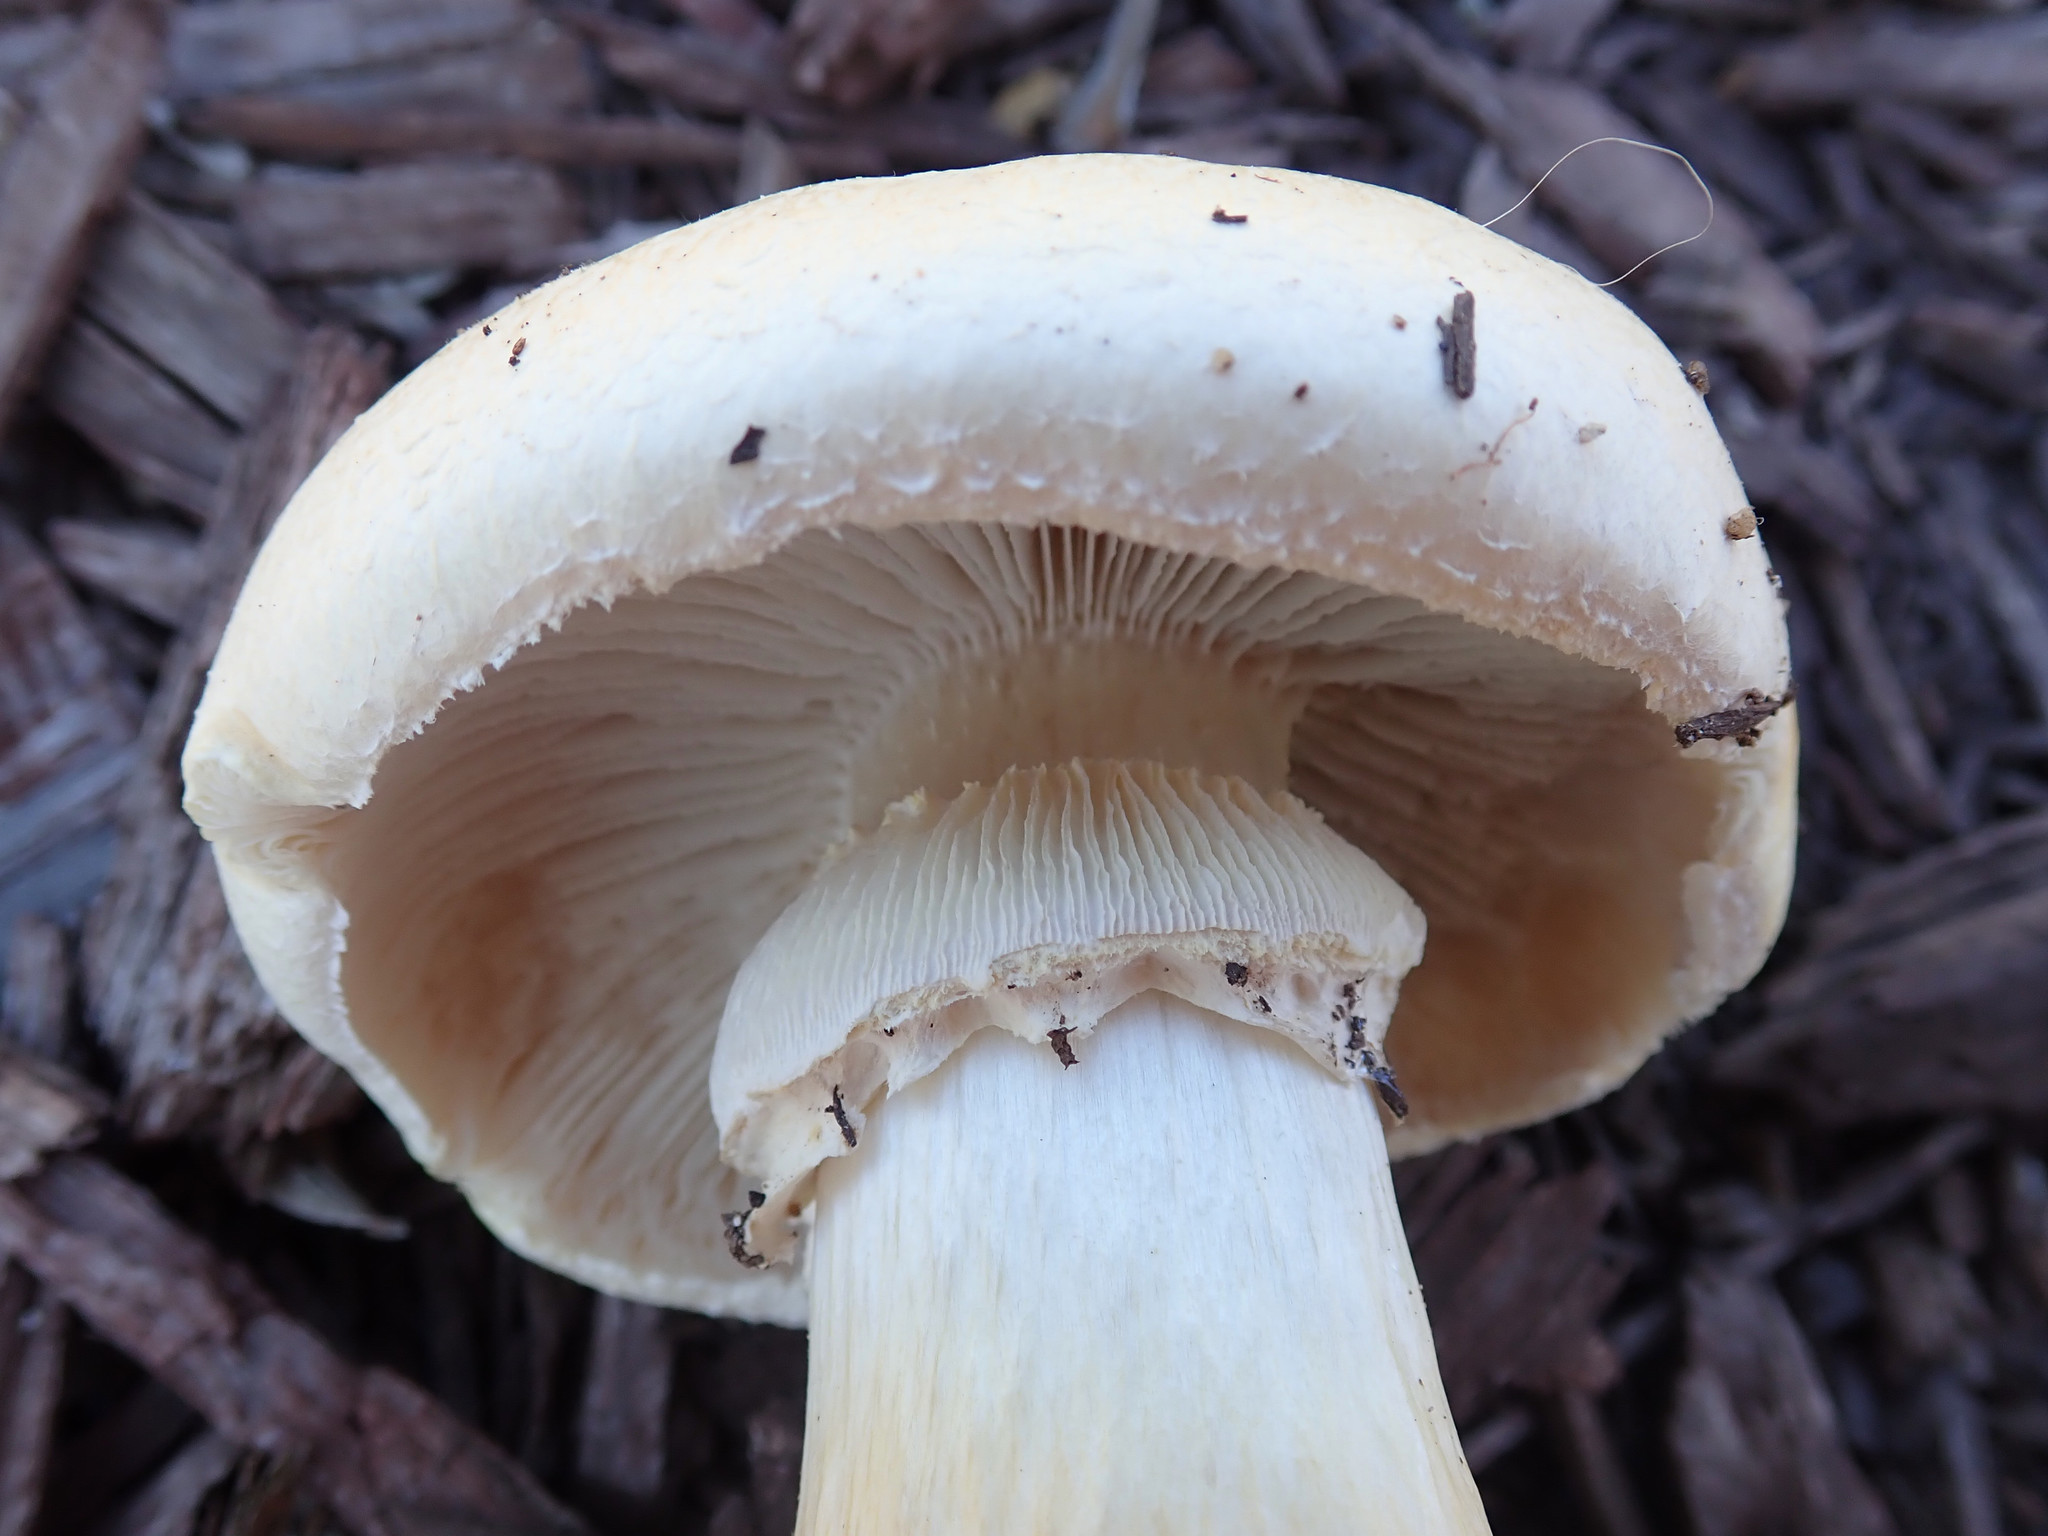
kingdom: Fungi
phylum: Basidiomycota
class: Agaricomycetes
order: Agaricales
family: Hymenogastraceae
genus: Psilocybe
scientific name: Psilocybe coronilla
